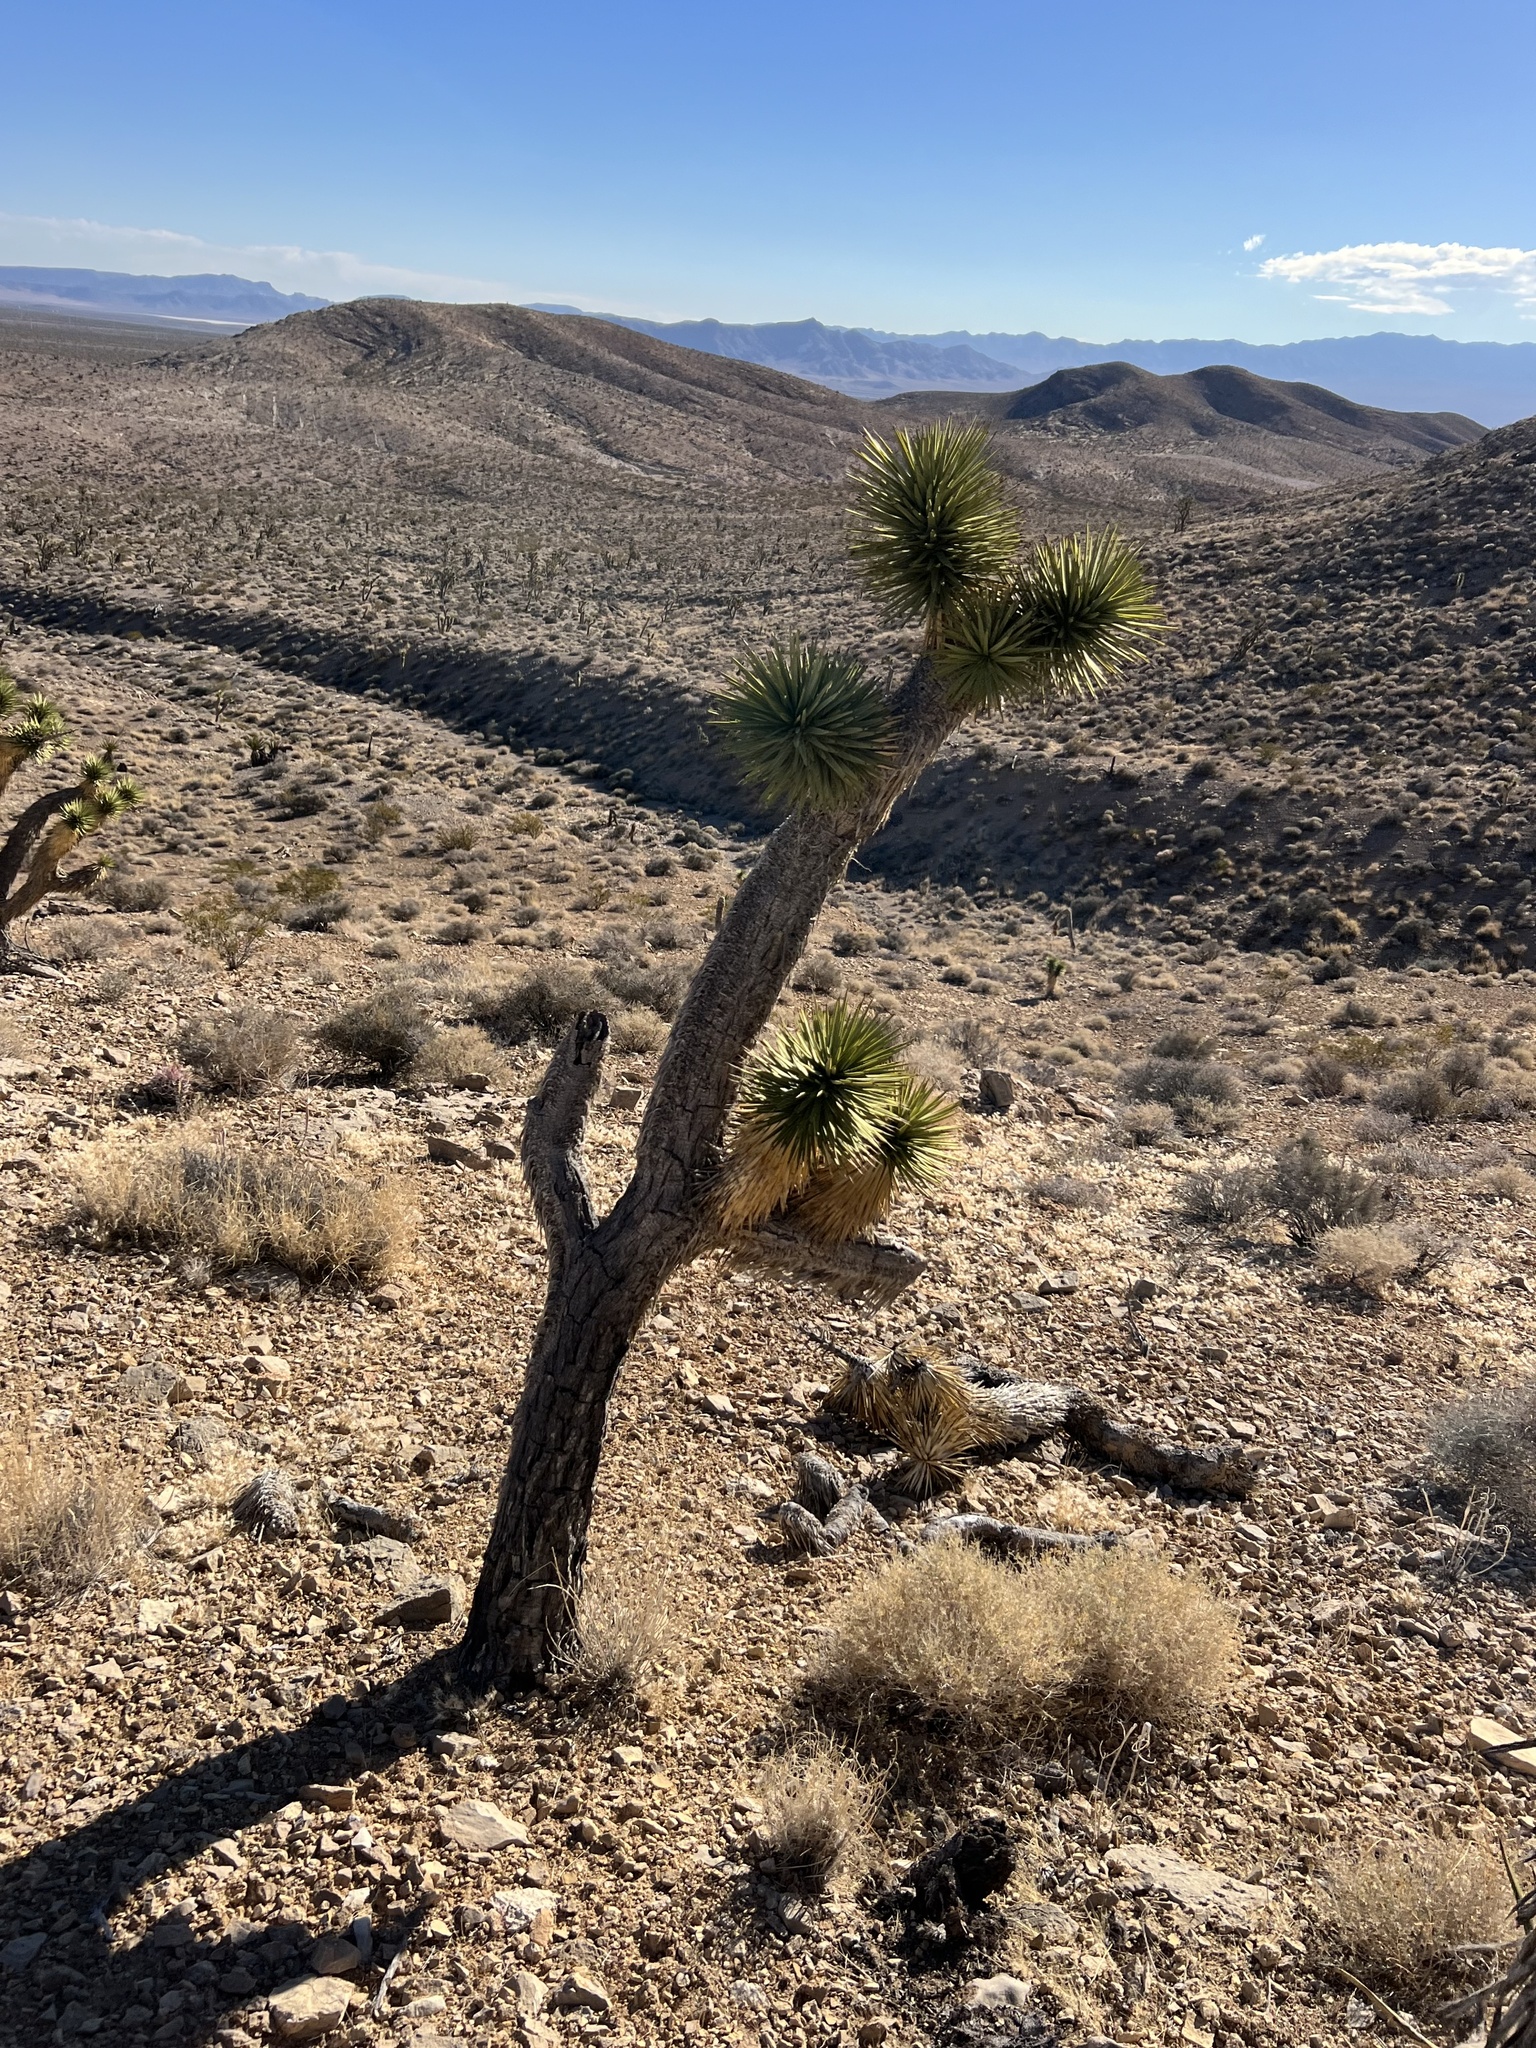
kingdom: Plantae
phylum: Tracheophyta
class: Liliopsida
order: Asparagales
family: Asparagaceae
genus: Yucca
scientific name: Yucca brevifolia
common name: Joshua tree
